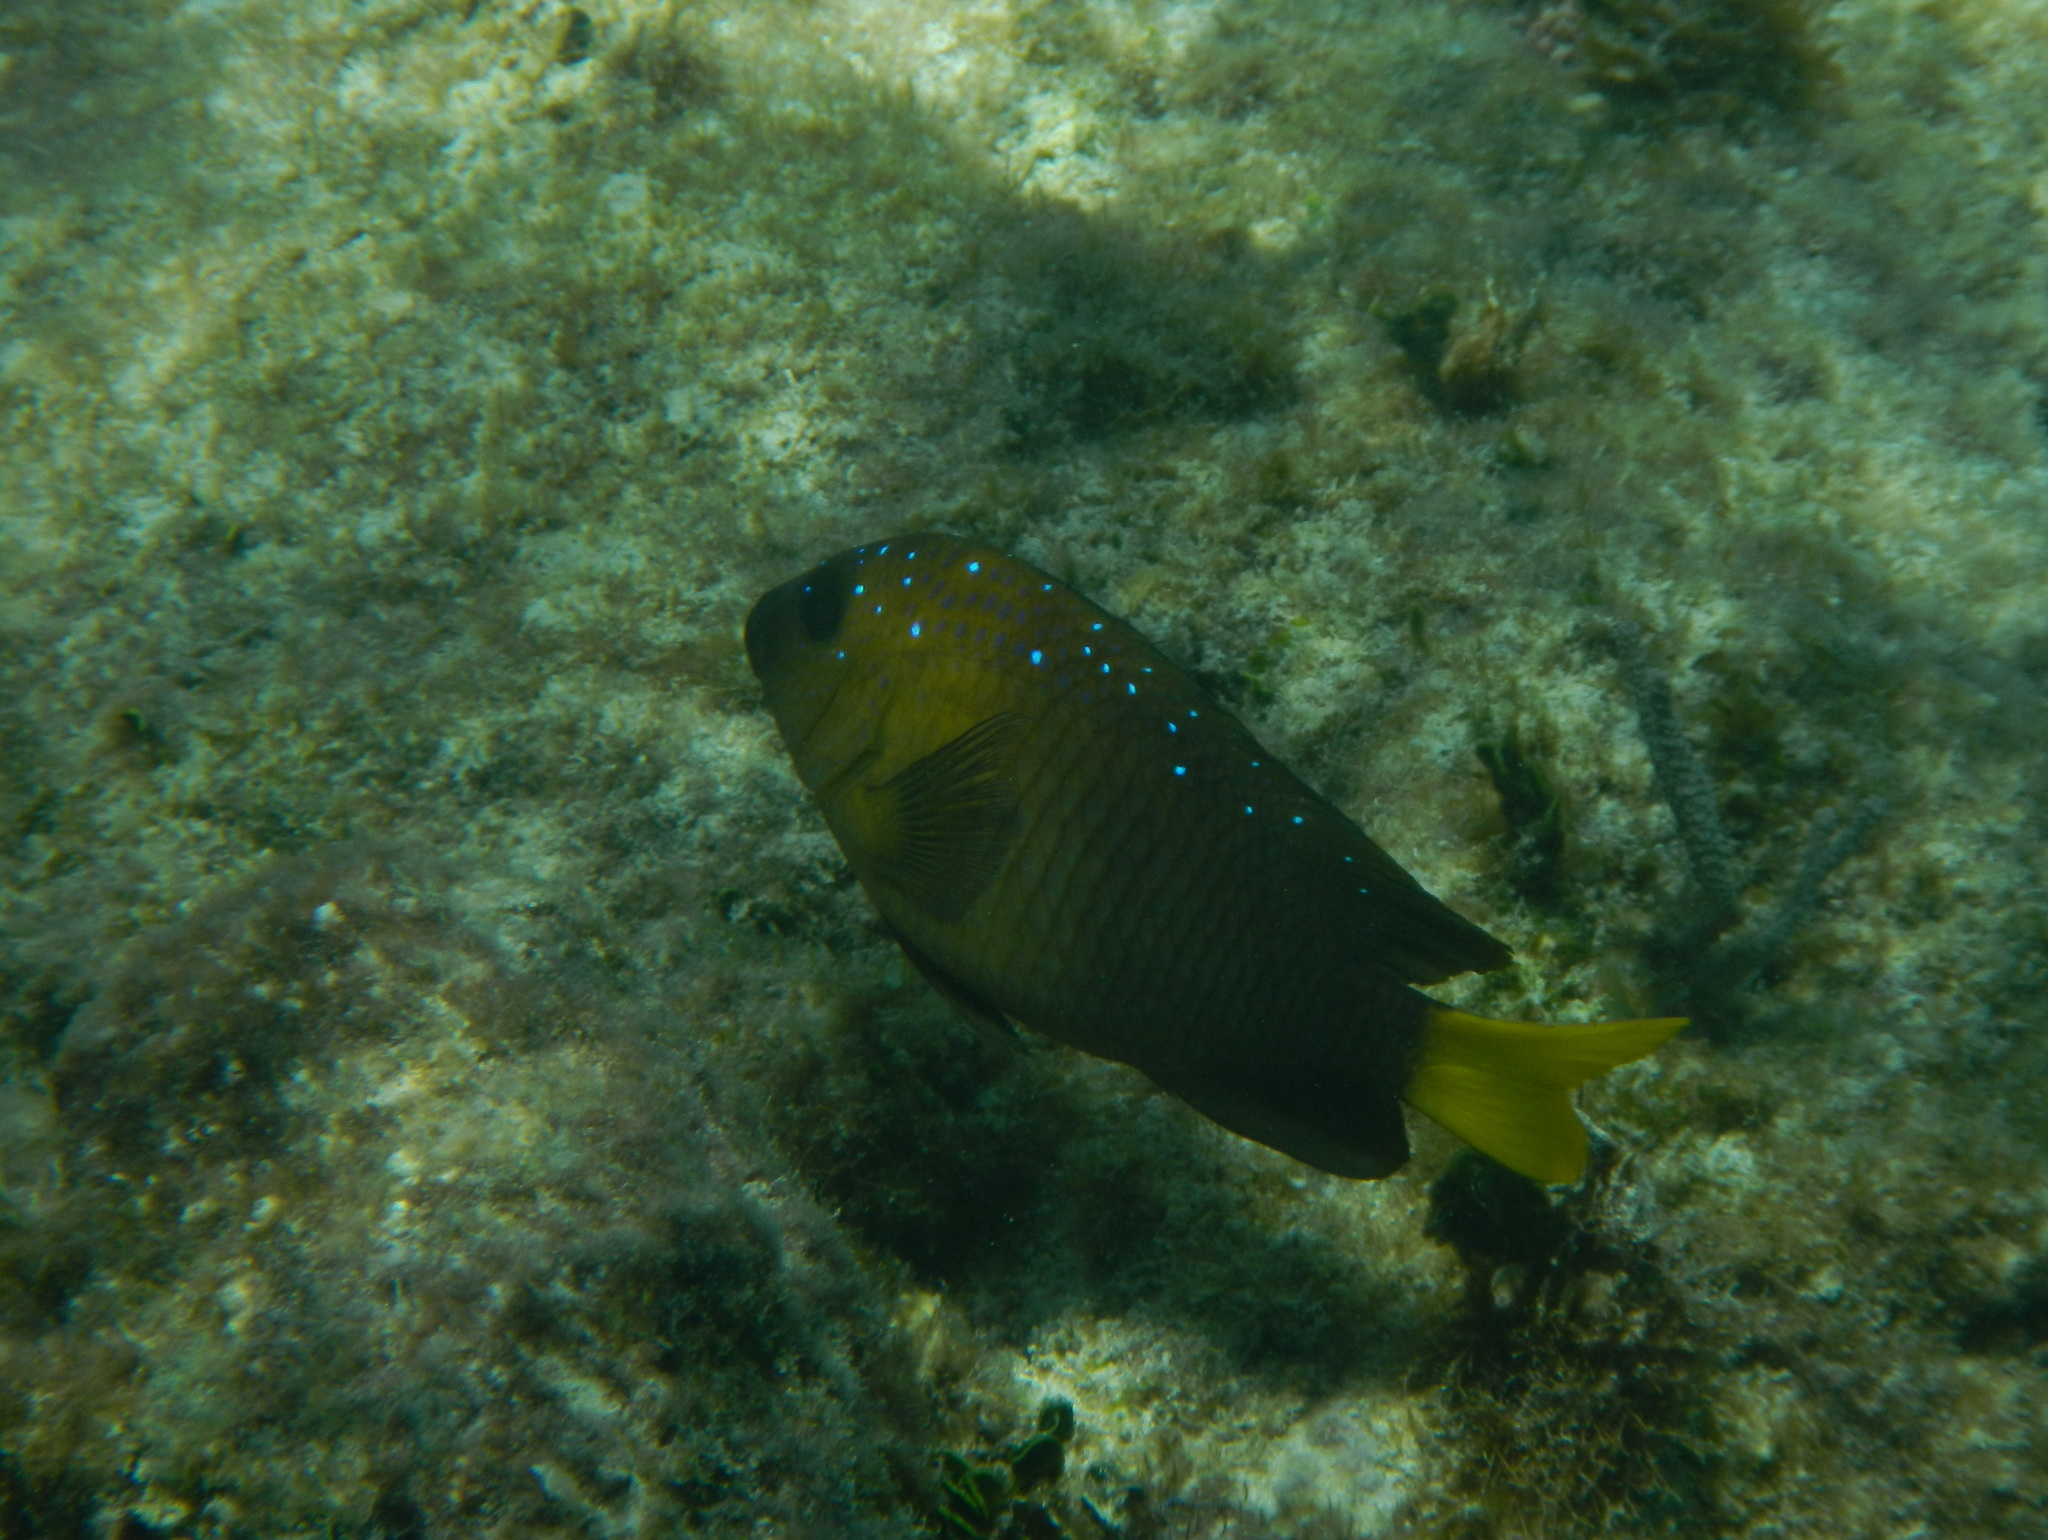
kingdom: Animalia
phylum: Chordata
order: Perciformes
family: Pomacentridae
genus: Microspathodon
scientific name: Microspathodon chrysurus
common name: Yellowtail damselfish
